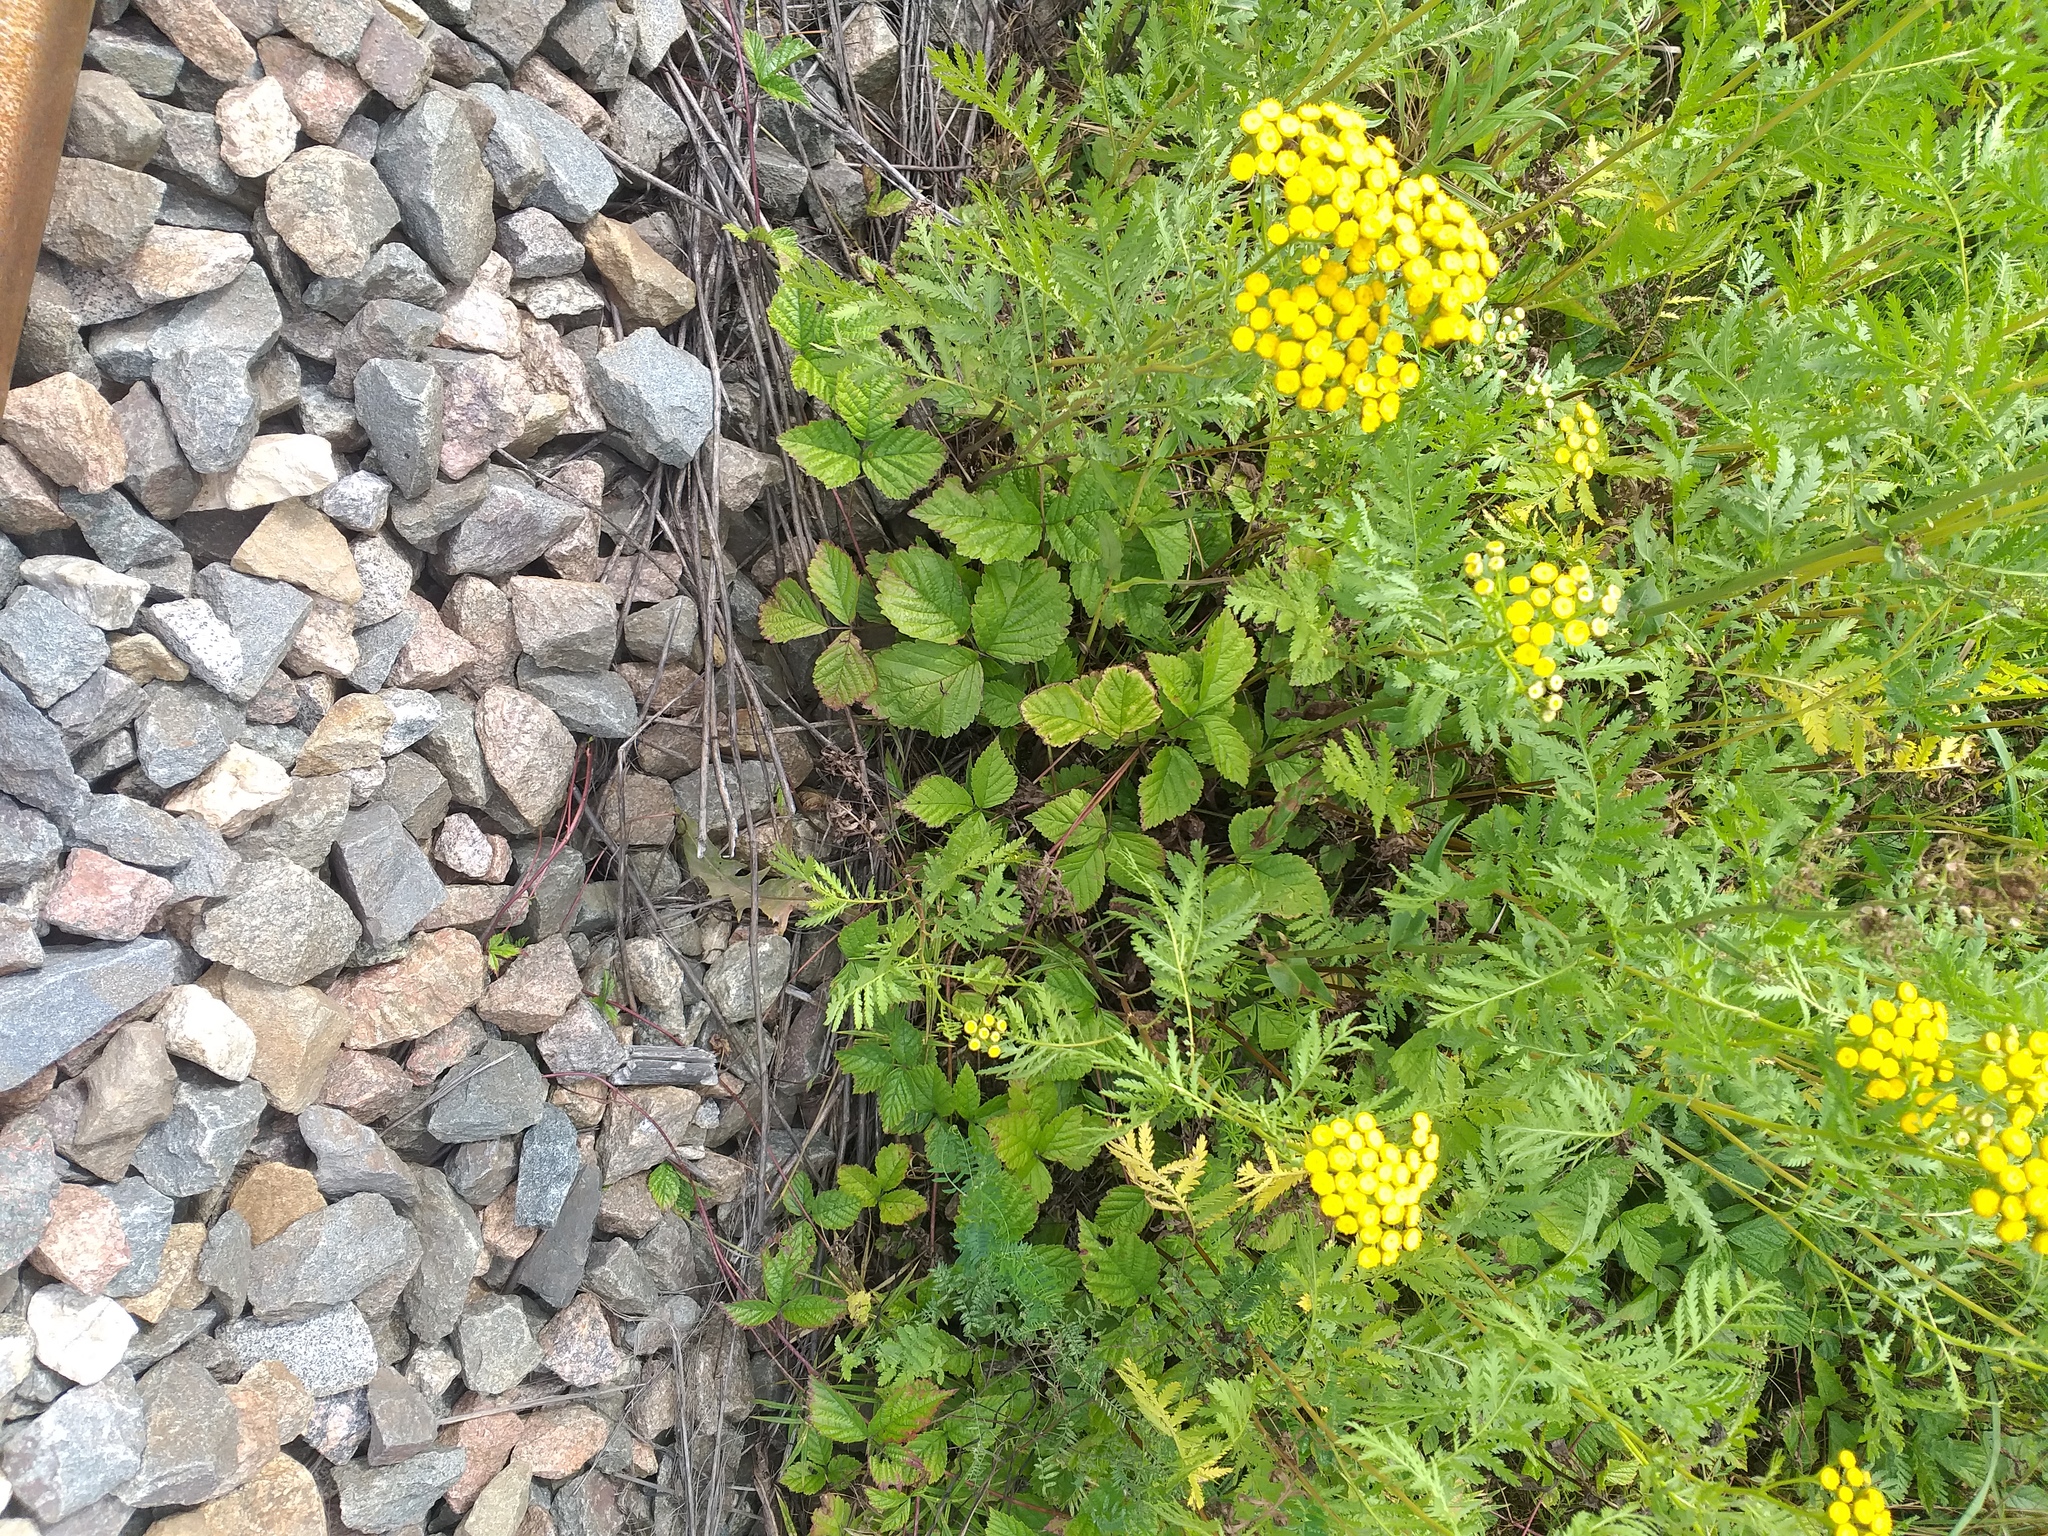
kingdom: Plantae
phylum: Tracheophyta
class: Magnoliopsida
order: Rosales
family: Rosaceae
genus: Rubus
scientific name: Rubus saxatilis
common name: Stone bramble
